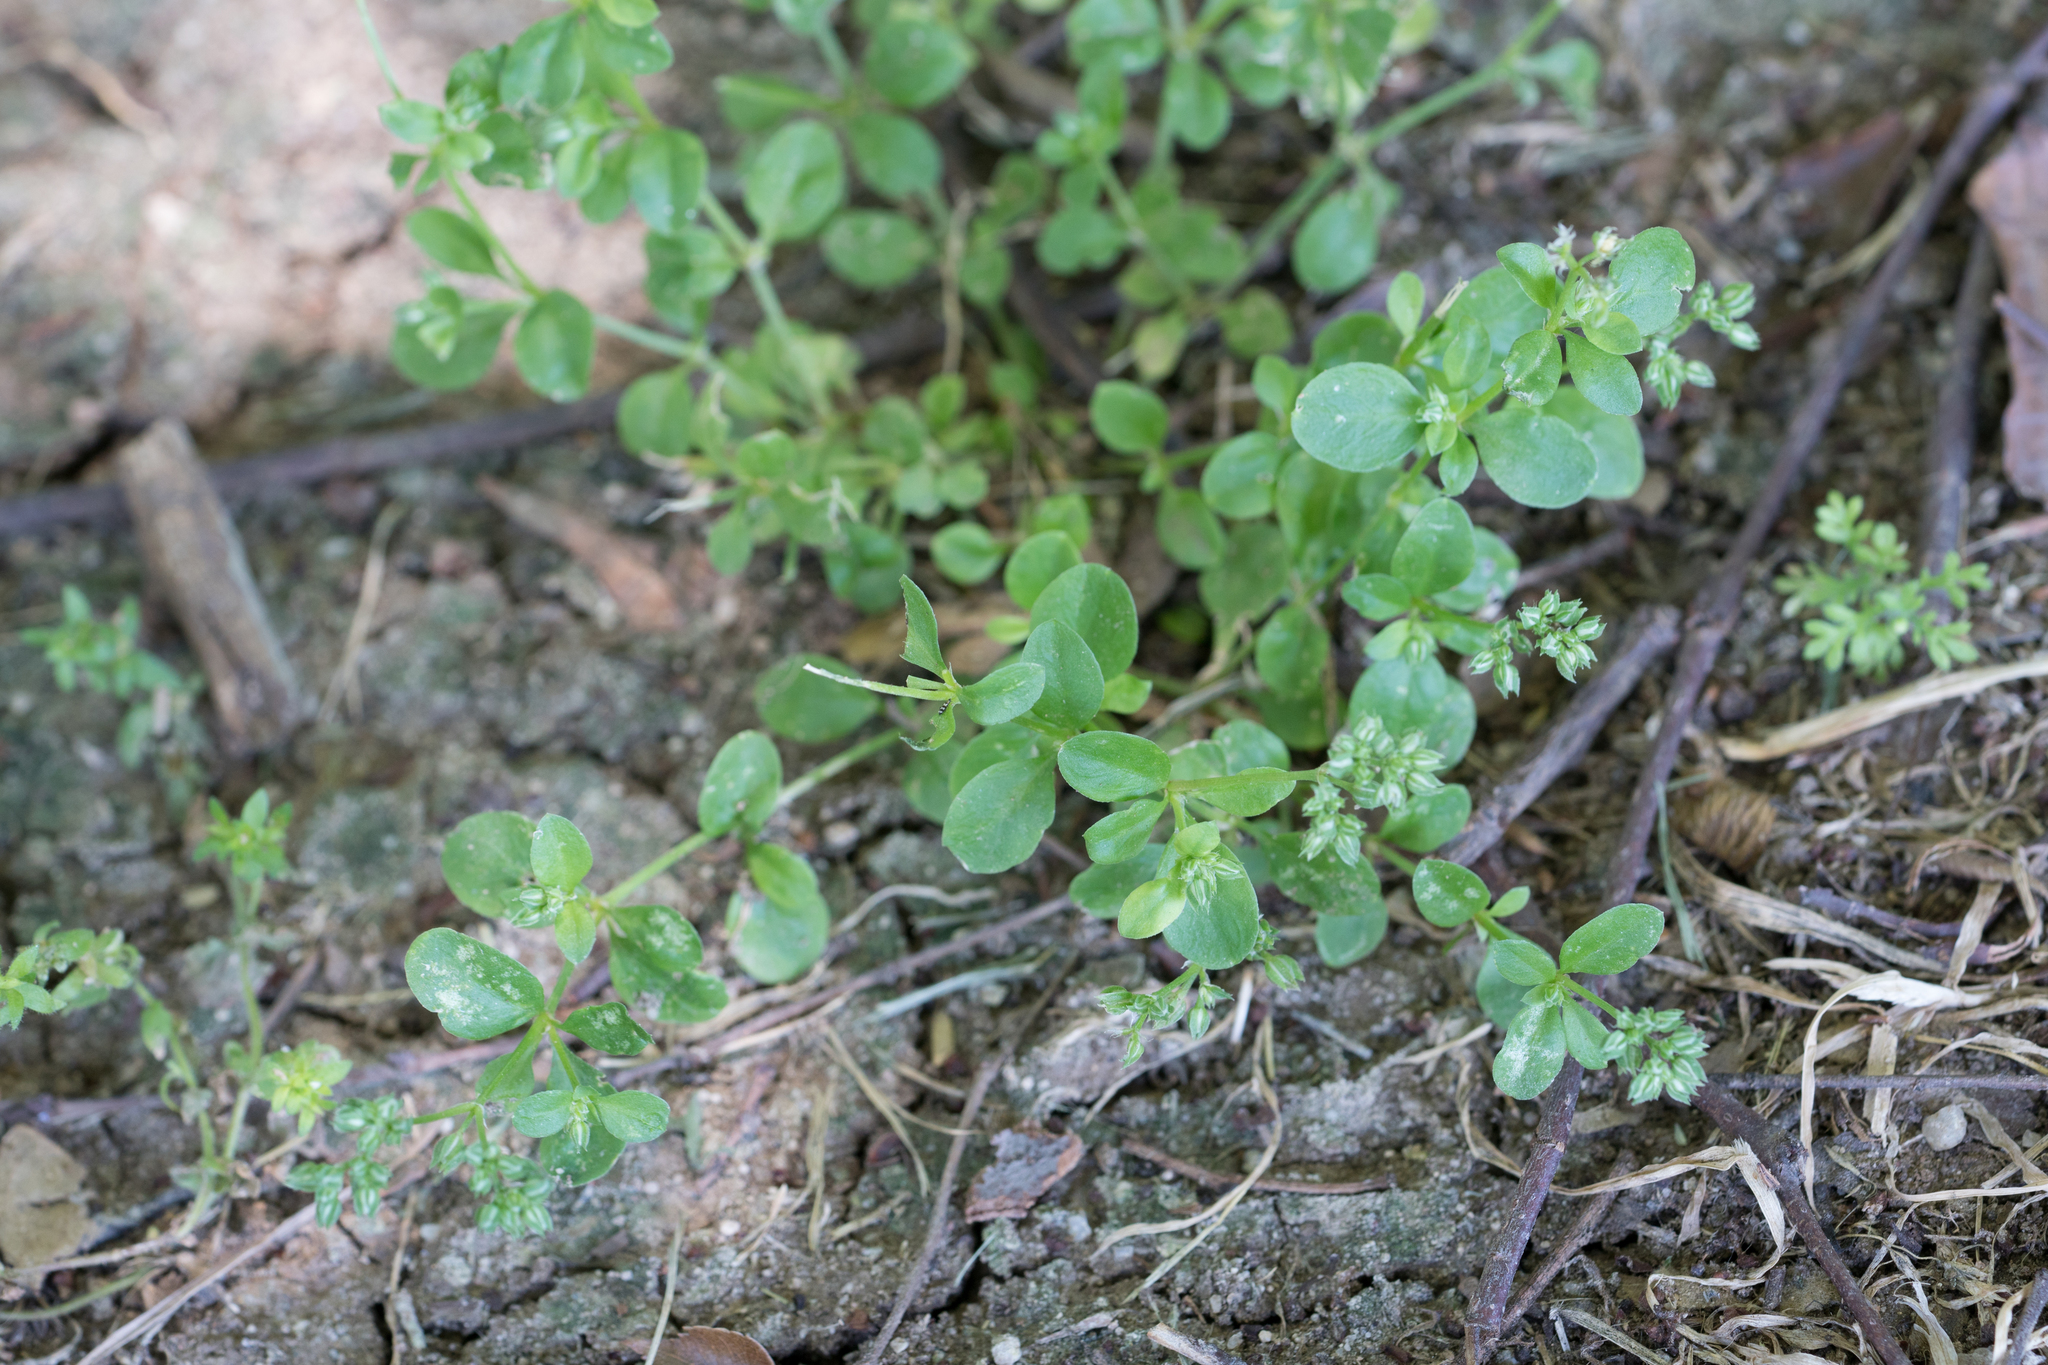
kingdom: Plantae
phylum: Tracheophyta
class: Magnoliopsida
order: Caryophyllales
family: Caryophyllaceae
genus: Polycarpon
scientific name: Polycarpon tetraphyllum
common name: Four-leaved all-seed
